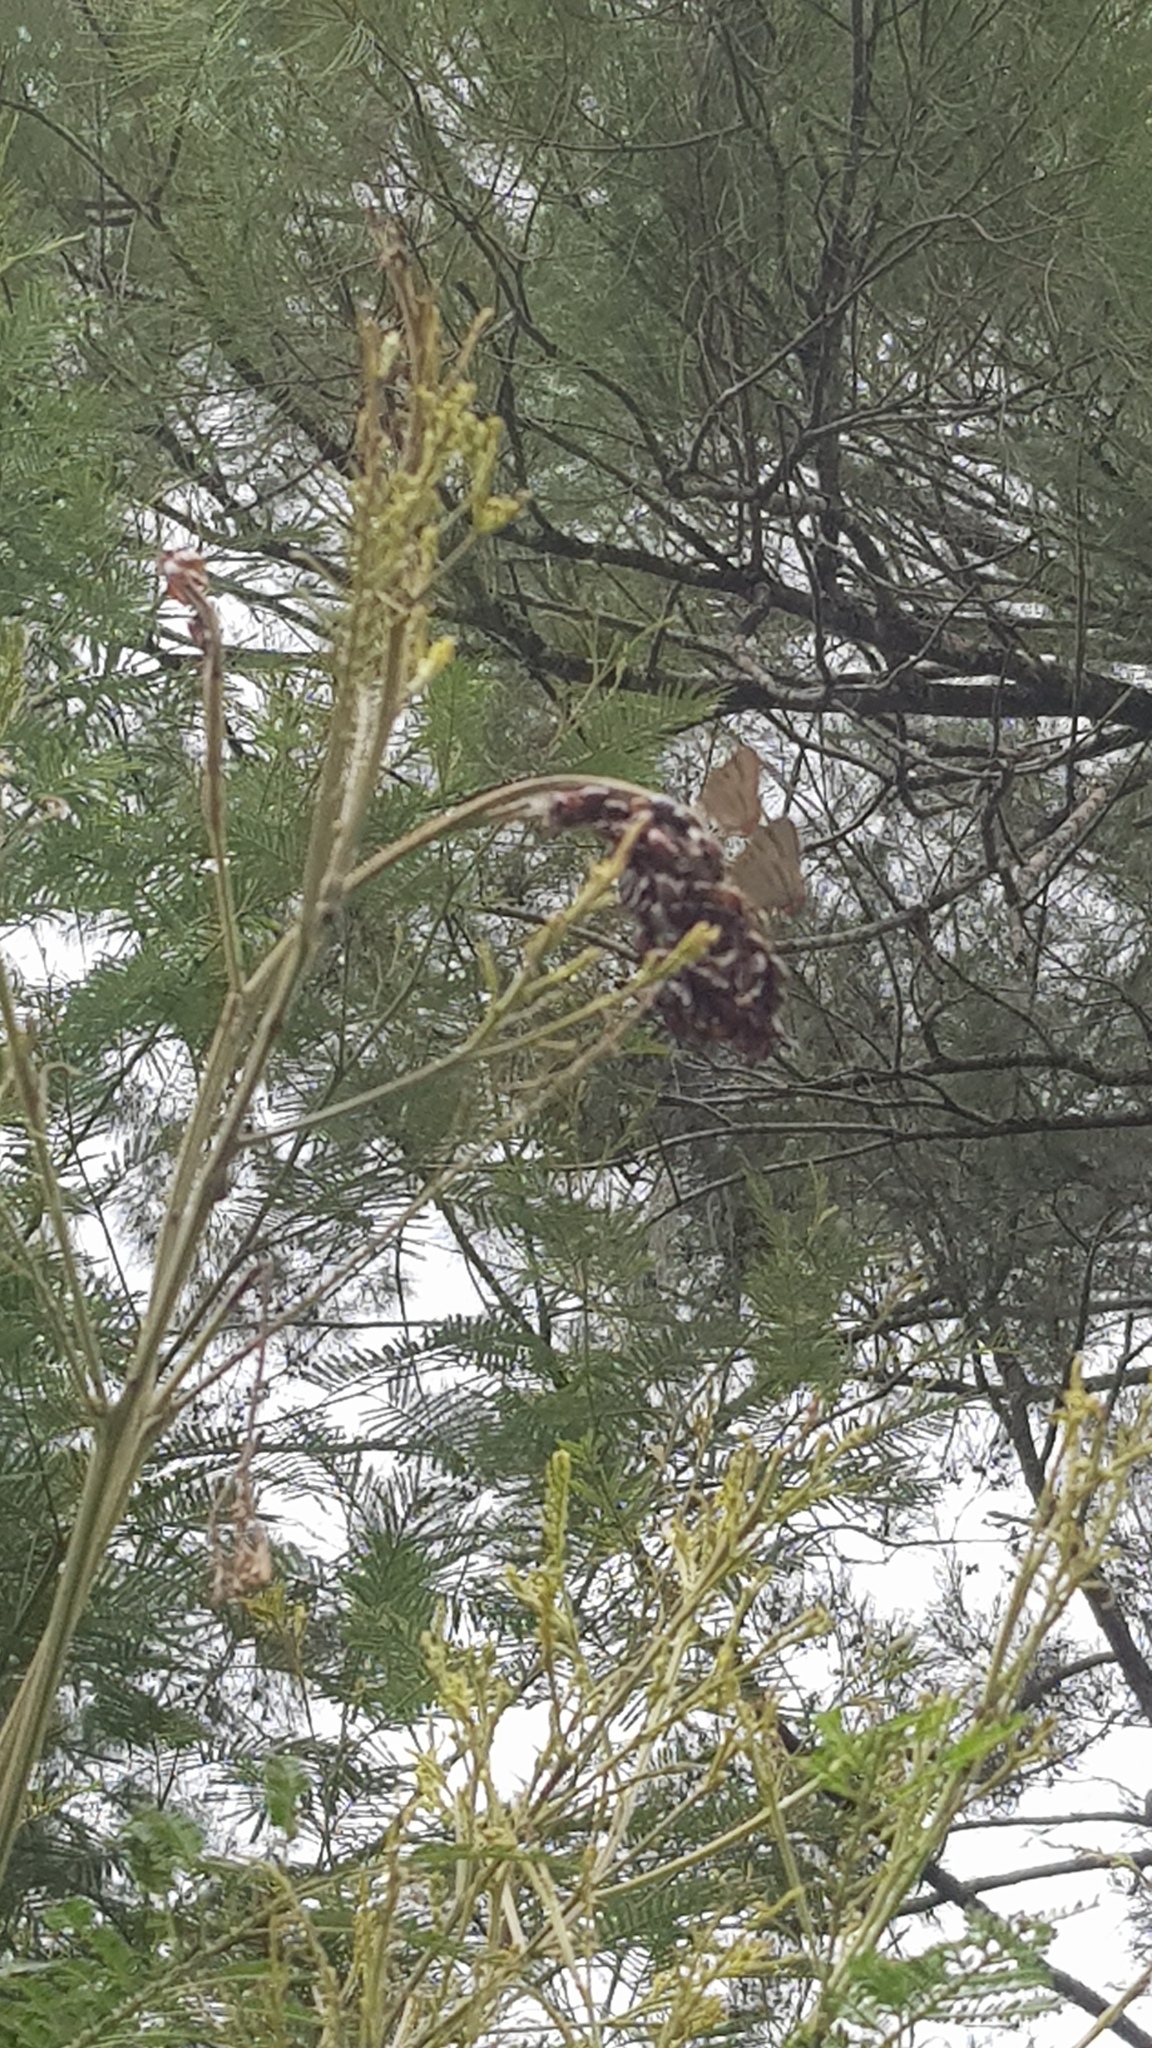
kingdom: Animalia
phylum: Arthropoda
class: Insecta
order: Lepidoptera
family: Lycaenidae
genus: Jalmenus
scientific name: Jalmenus evagoras
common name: Common imperial blue
